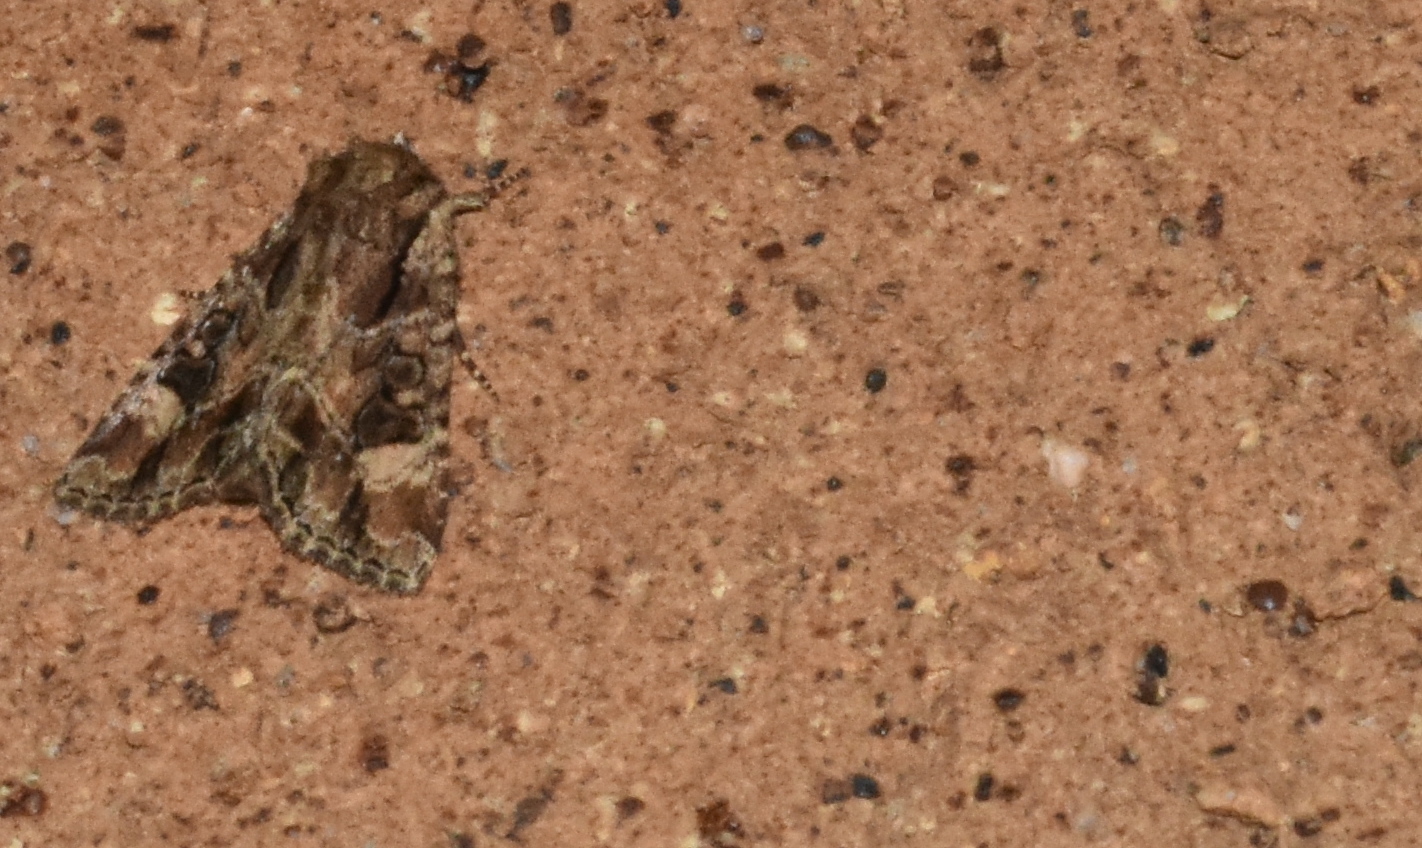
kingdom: Animalia
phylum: Arthropoda
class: Insecta
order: Lepidoptera
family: Noctuidae
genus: Aseptis
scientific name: Aseptis adnixa
